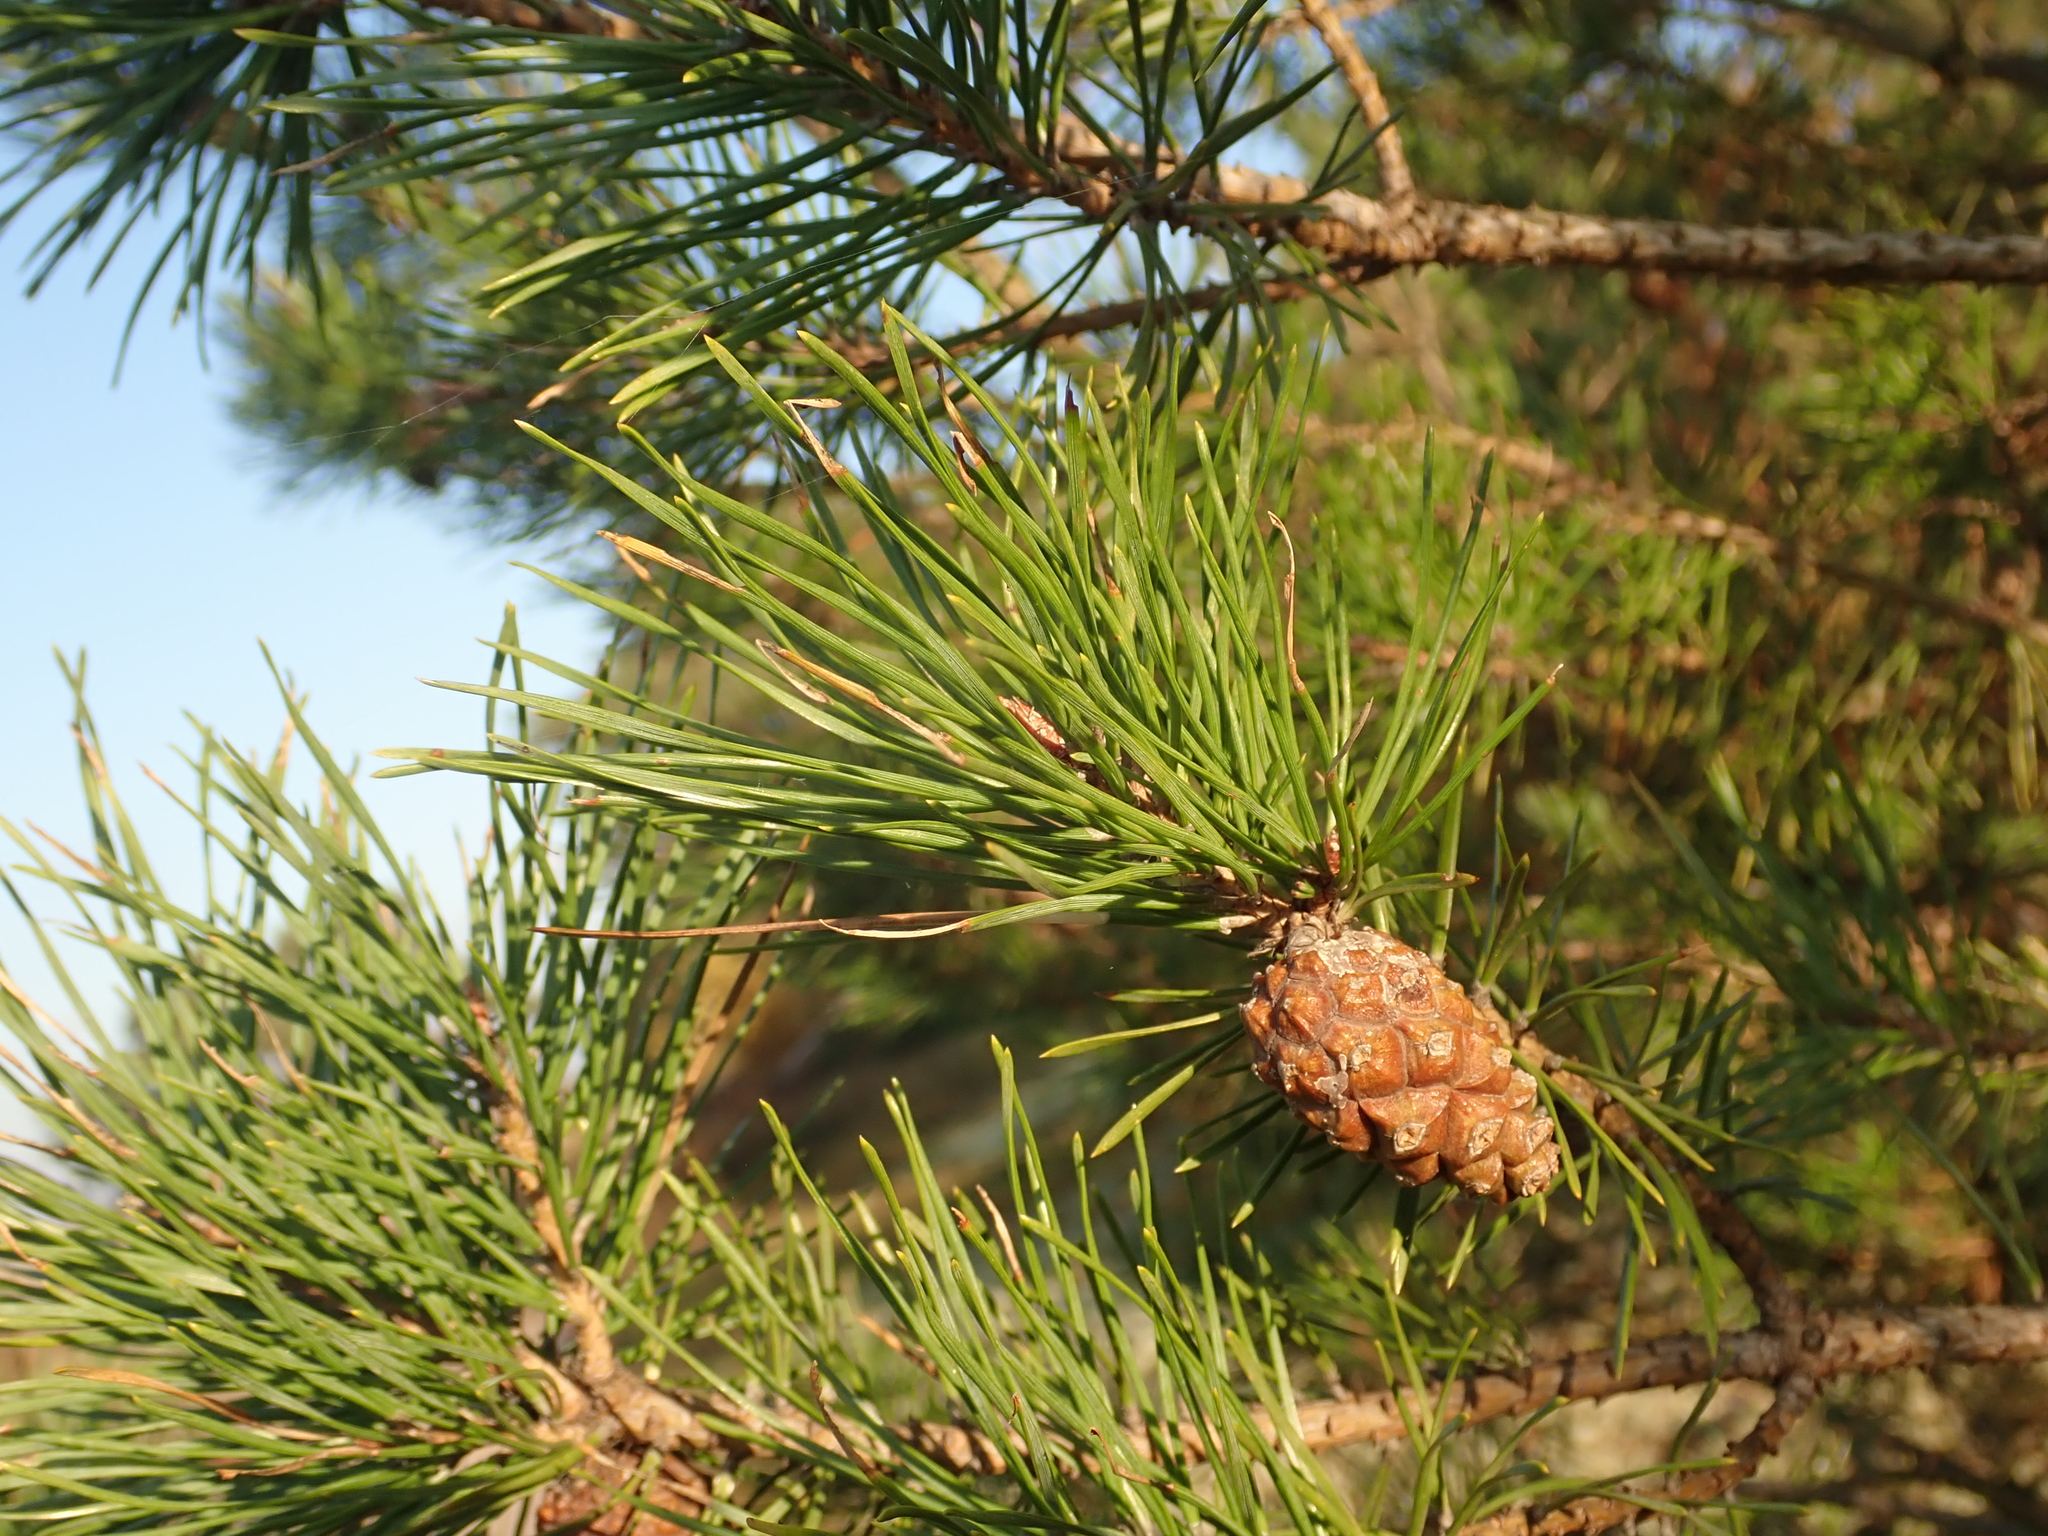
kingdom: Plantae
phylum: Tracheophyta
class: Pinopsida
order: Pinales
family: Pinaceae
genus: Pinus
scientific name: Pinus sylvestris
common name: Scots pine
